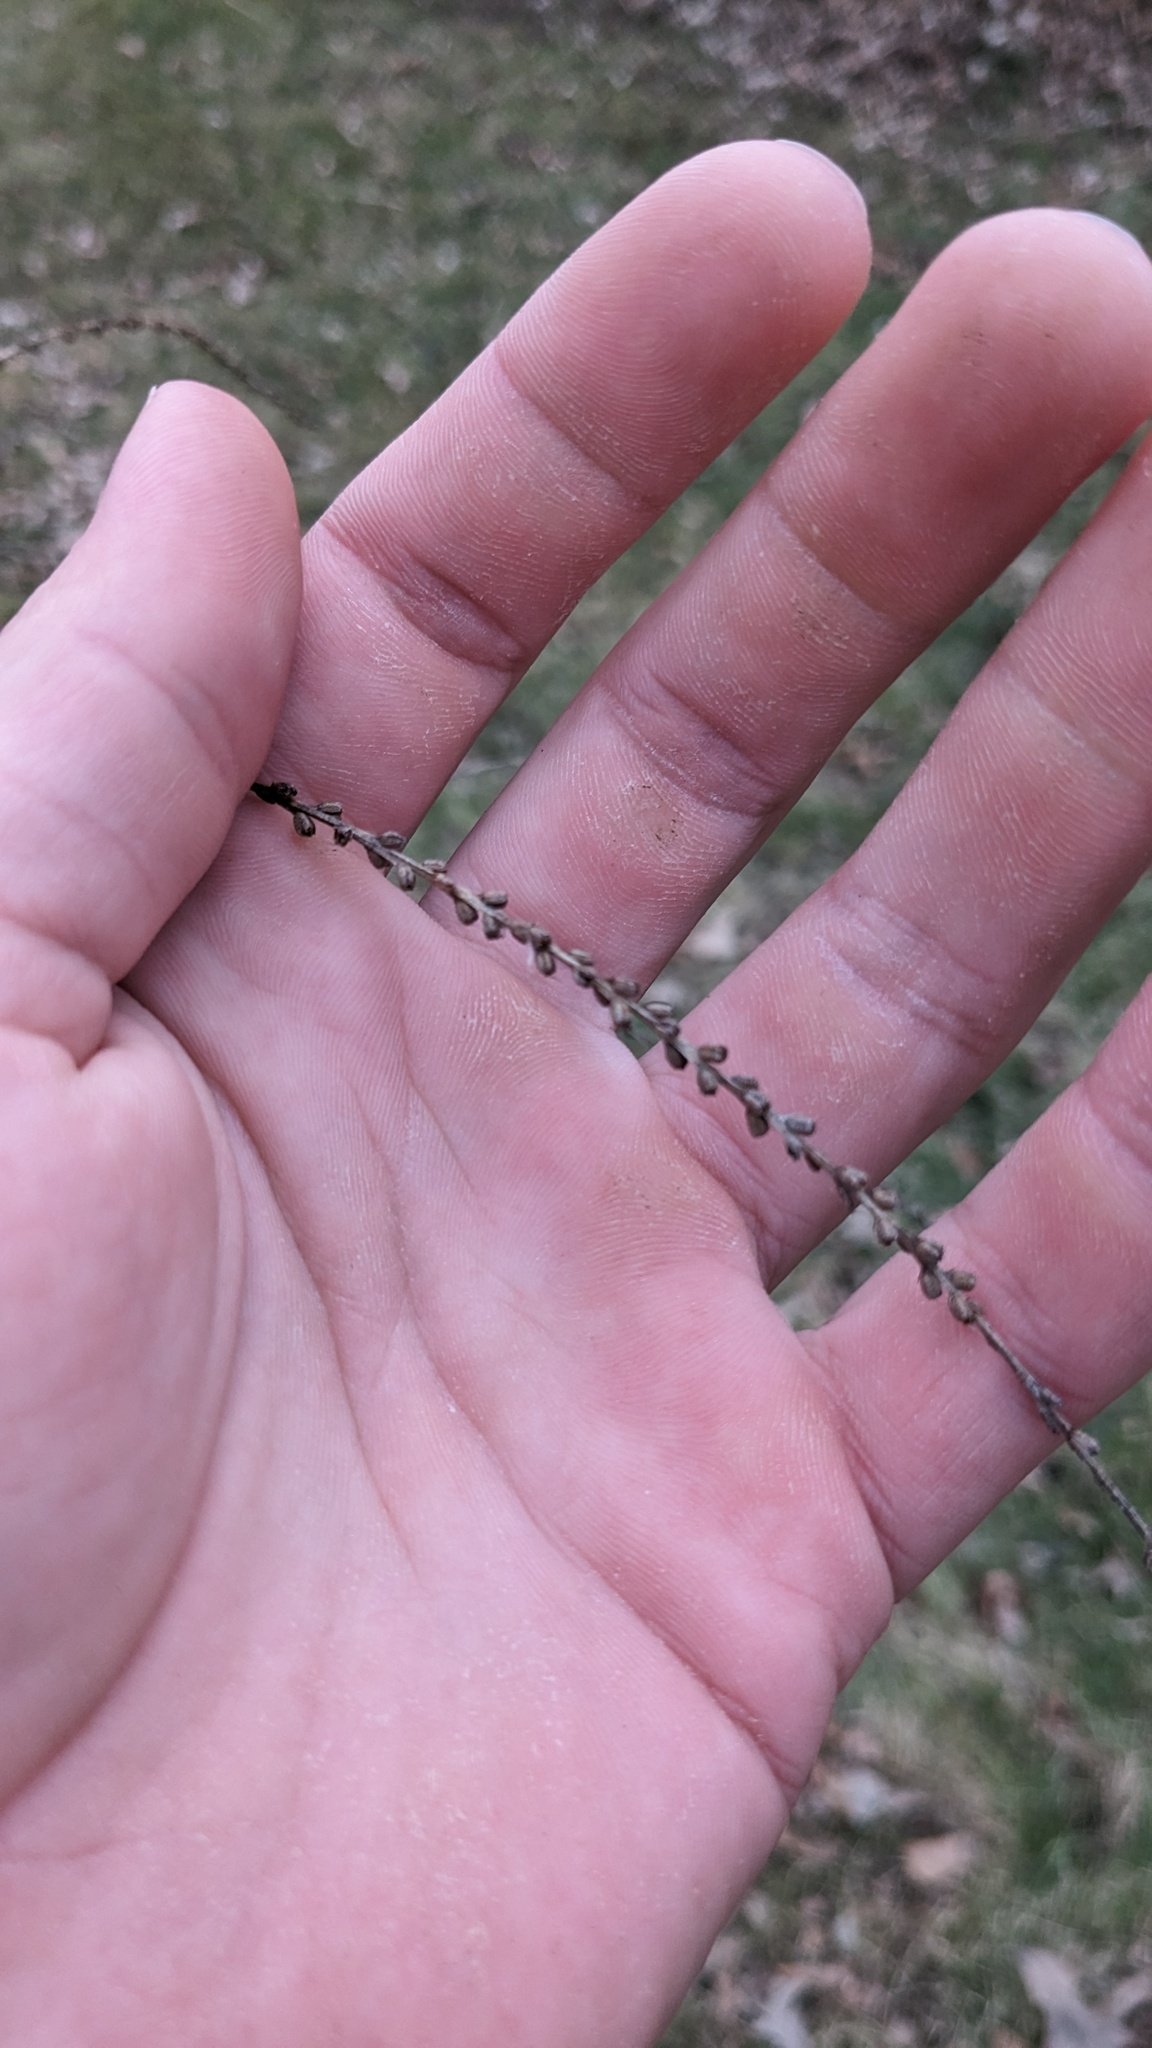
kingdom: Plantae
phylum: Tracheophyta
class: Magnoliopsida
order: Lamiales
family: Verbenaceae
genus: Verbena
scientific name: Verbena urticifolia
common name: Nettle-leaved vervain
